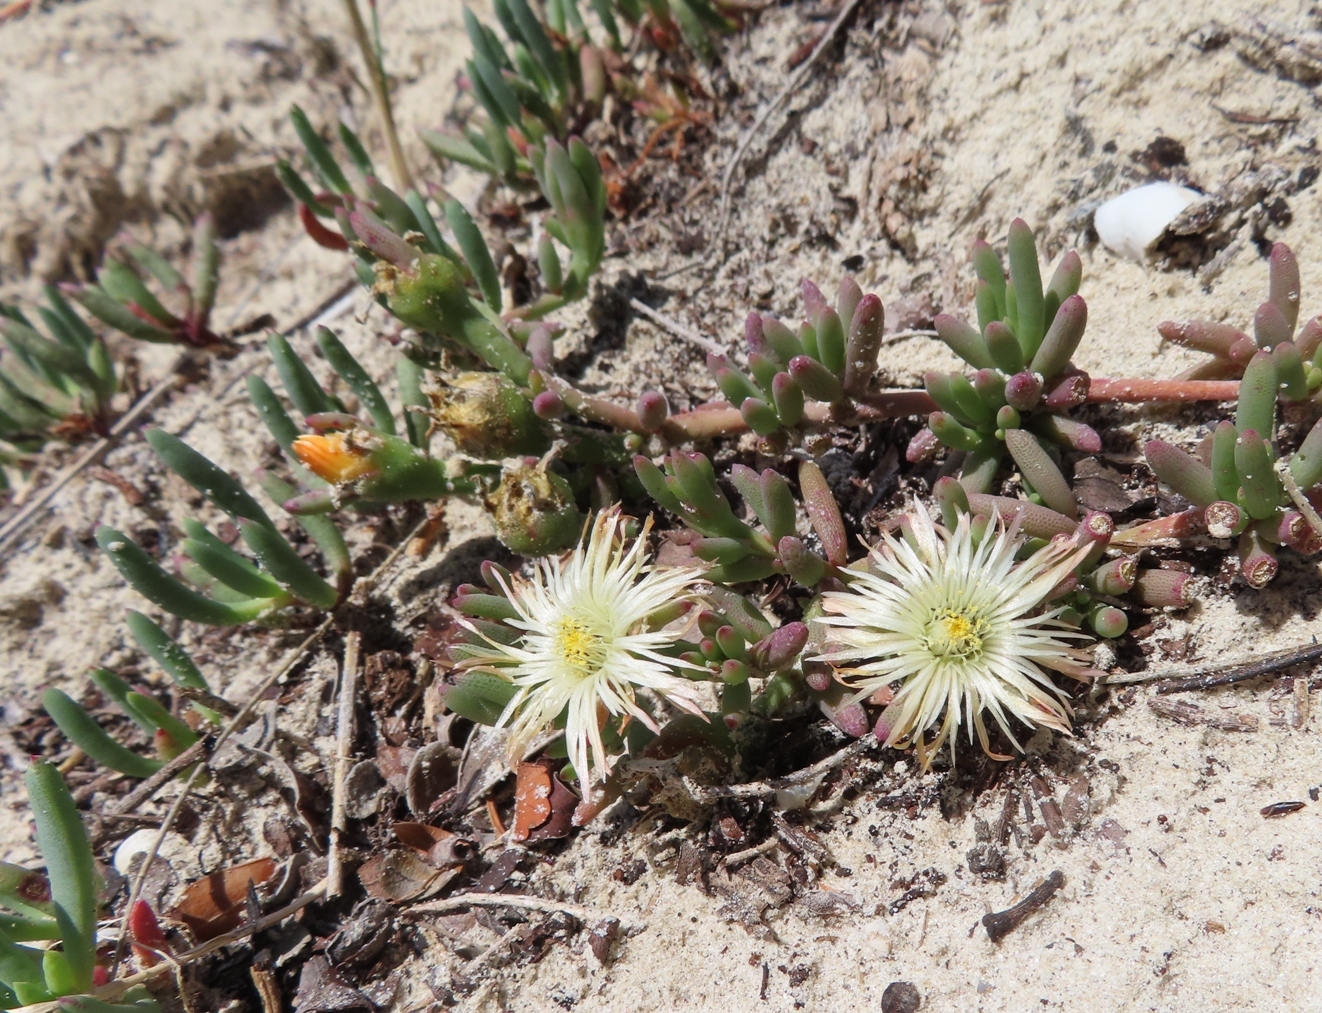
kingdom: Plantae
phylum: Tracheophyta
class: Magnoliopsida
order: Caryophyllales
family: Aizoaceae
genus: Mesembryanthemum
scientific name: Mesembryanthemum canaliculatum
